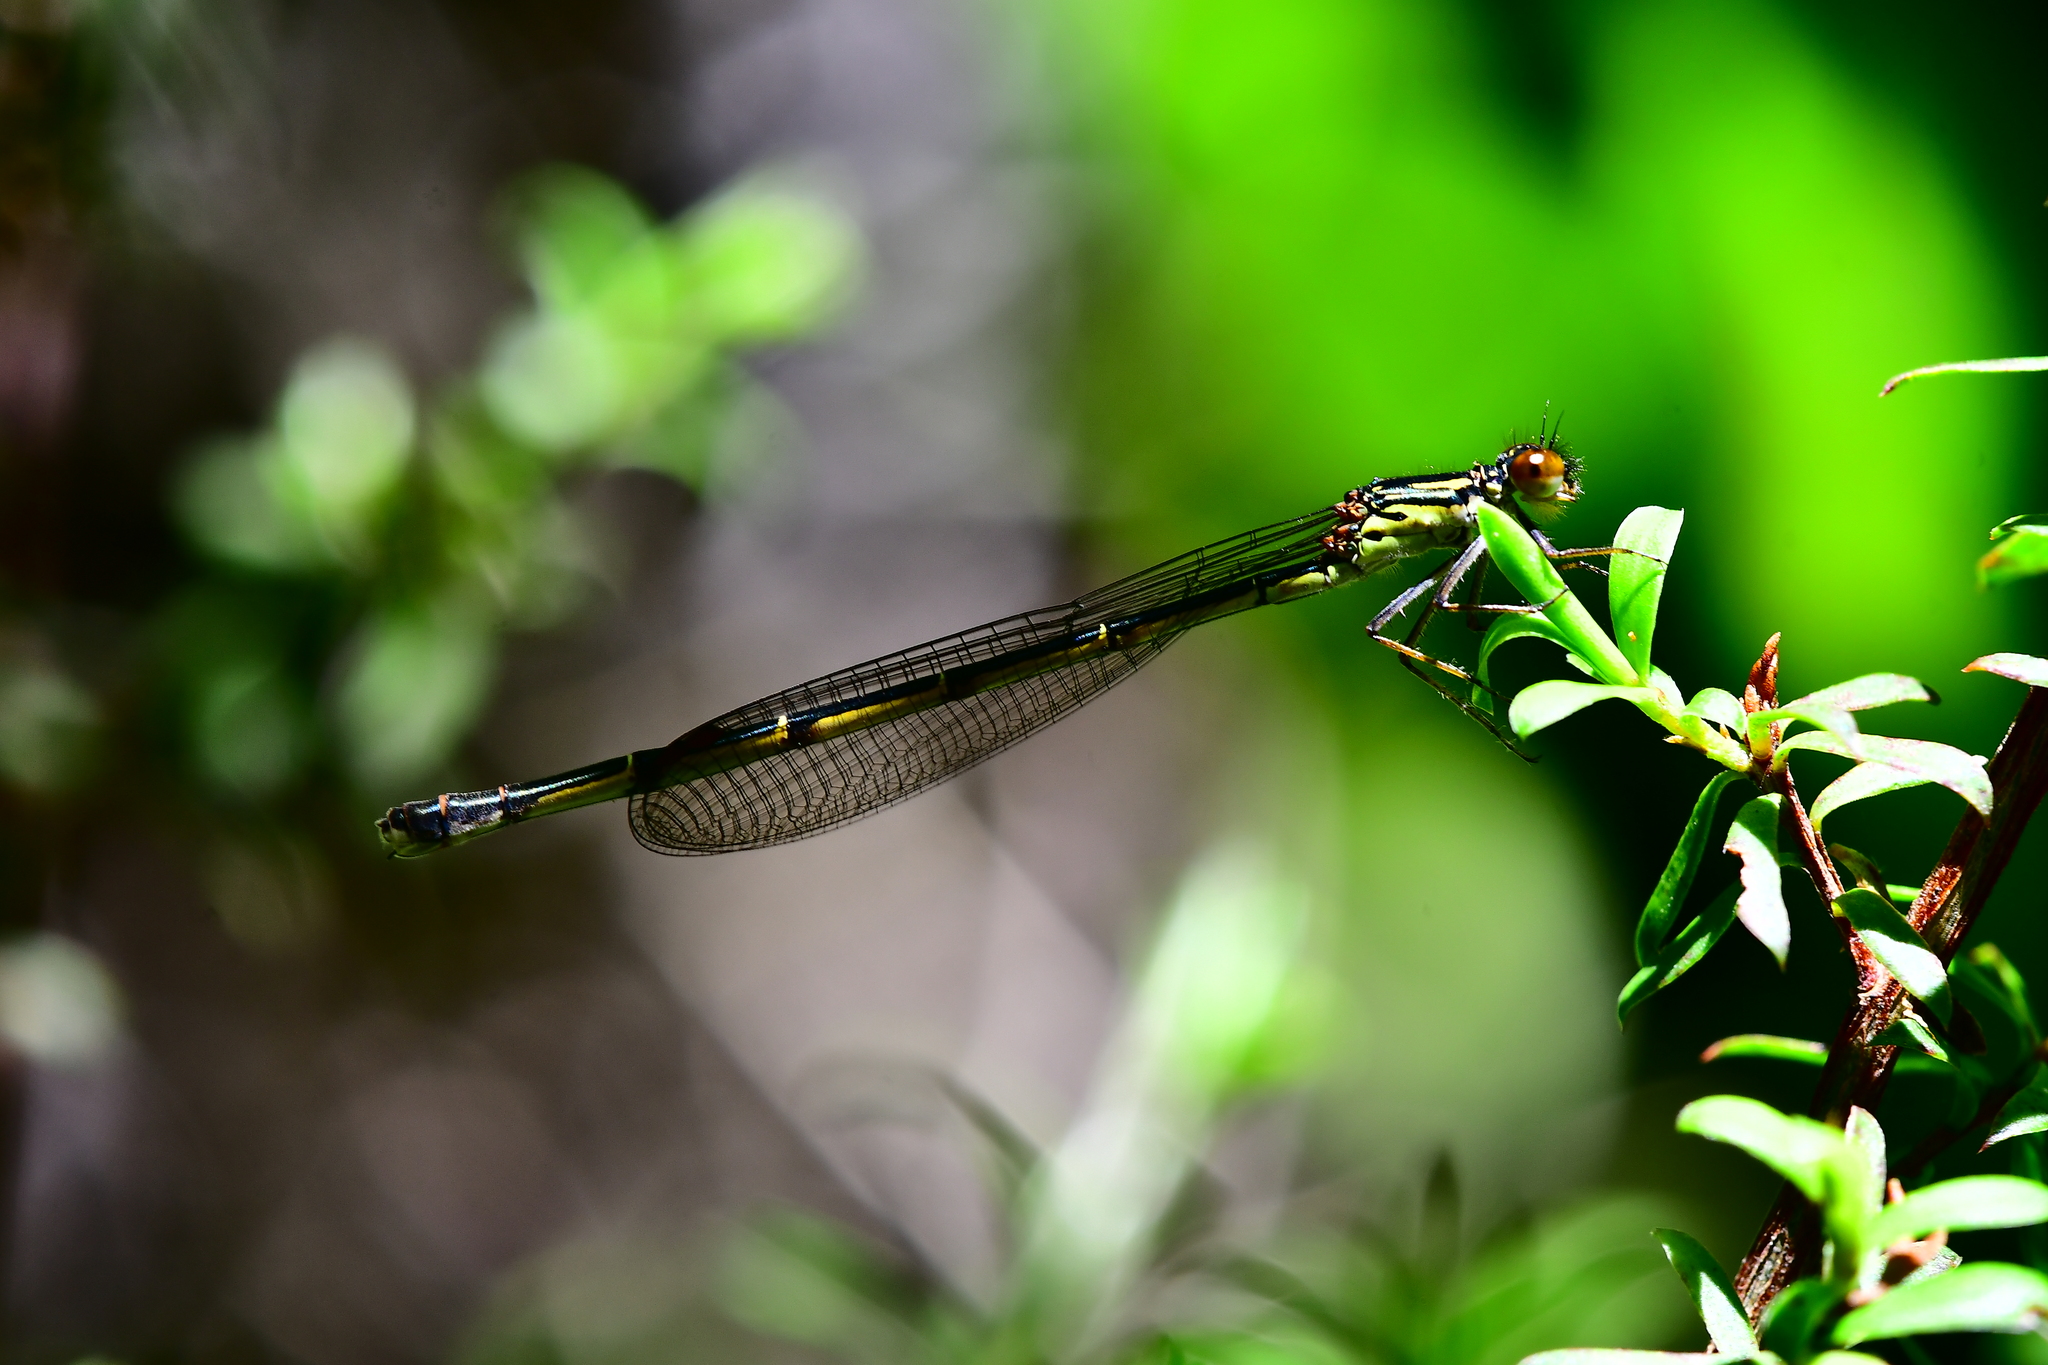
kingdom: Animalia
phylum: Arthropoda
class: Insecta
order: Odonata
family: Coenagrionidae
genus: Xanthocnemis
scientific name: Xanthocnemis zealandica
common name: Common redcoat damselfly
